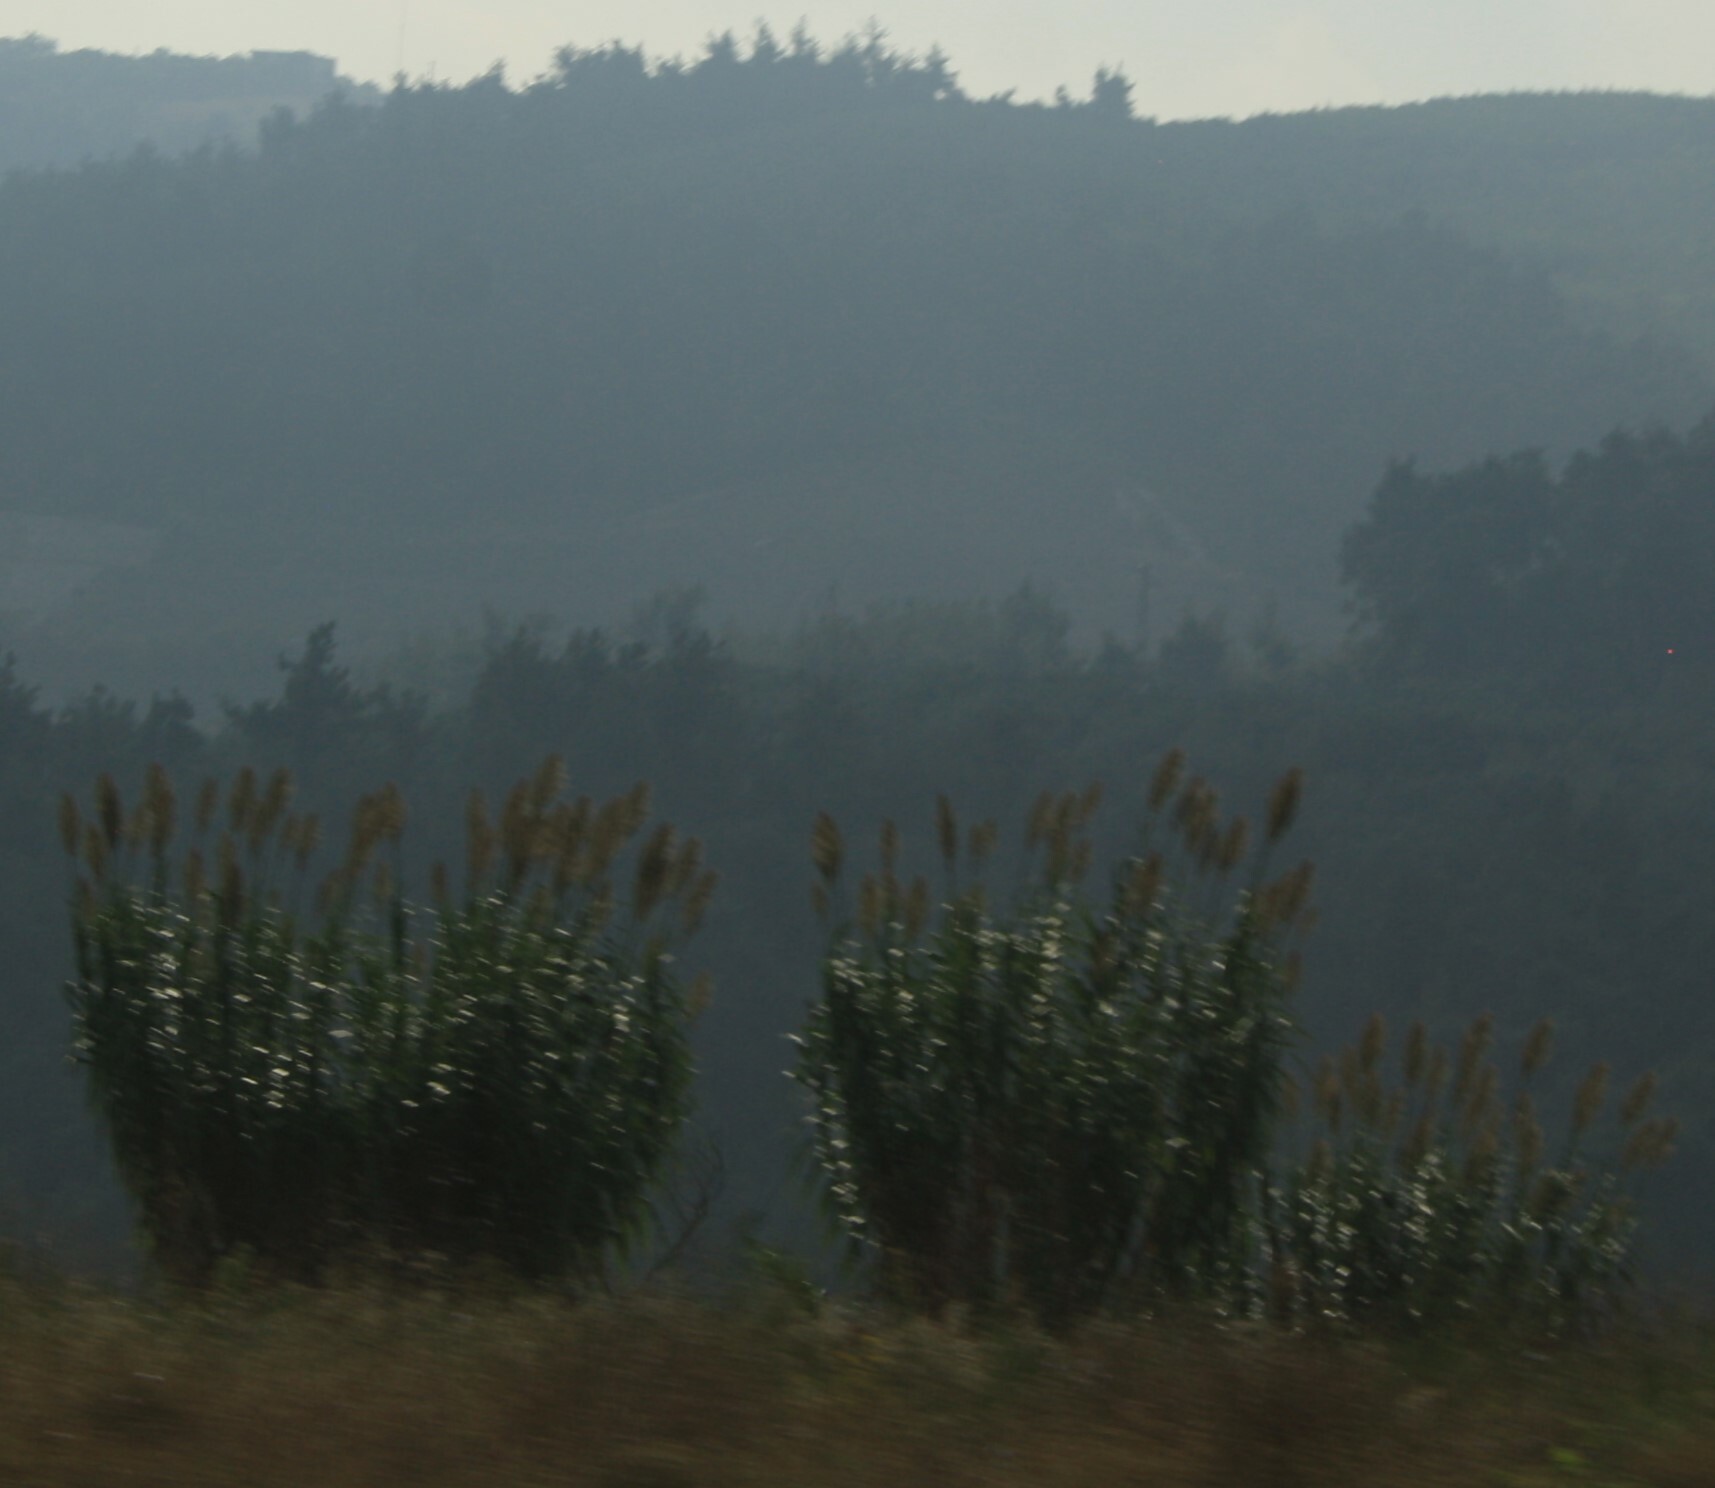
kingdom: Plantae
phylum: Tracheophyta
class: Liliopsida
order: Poales
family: Poaceae
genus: Arundo
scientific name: Arundo donax
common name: Giant reed
